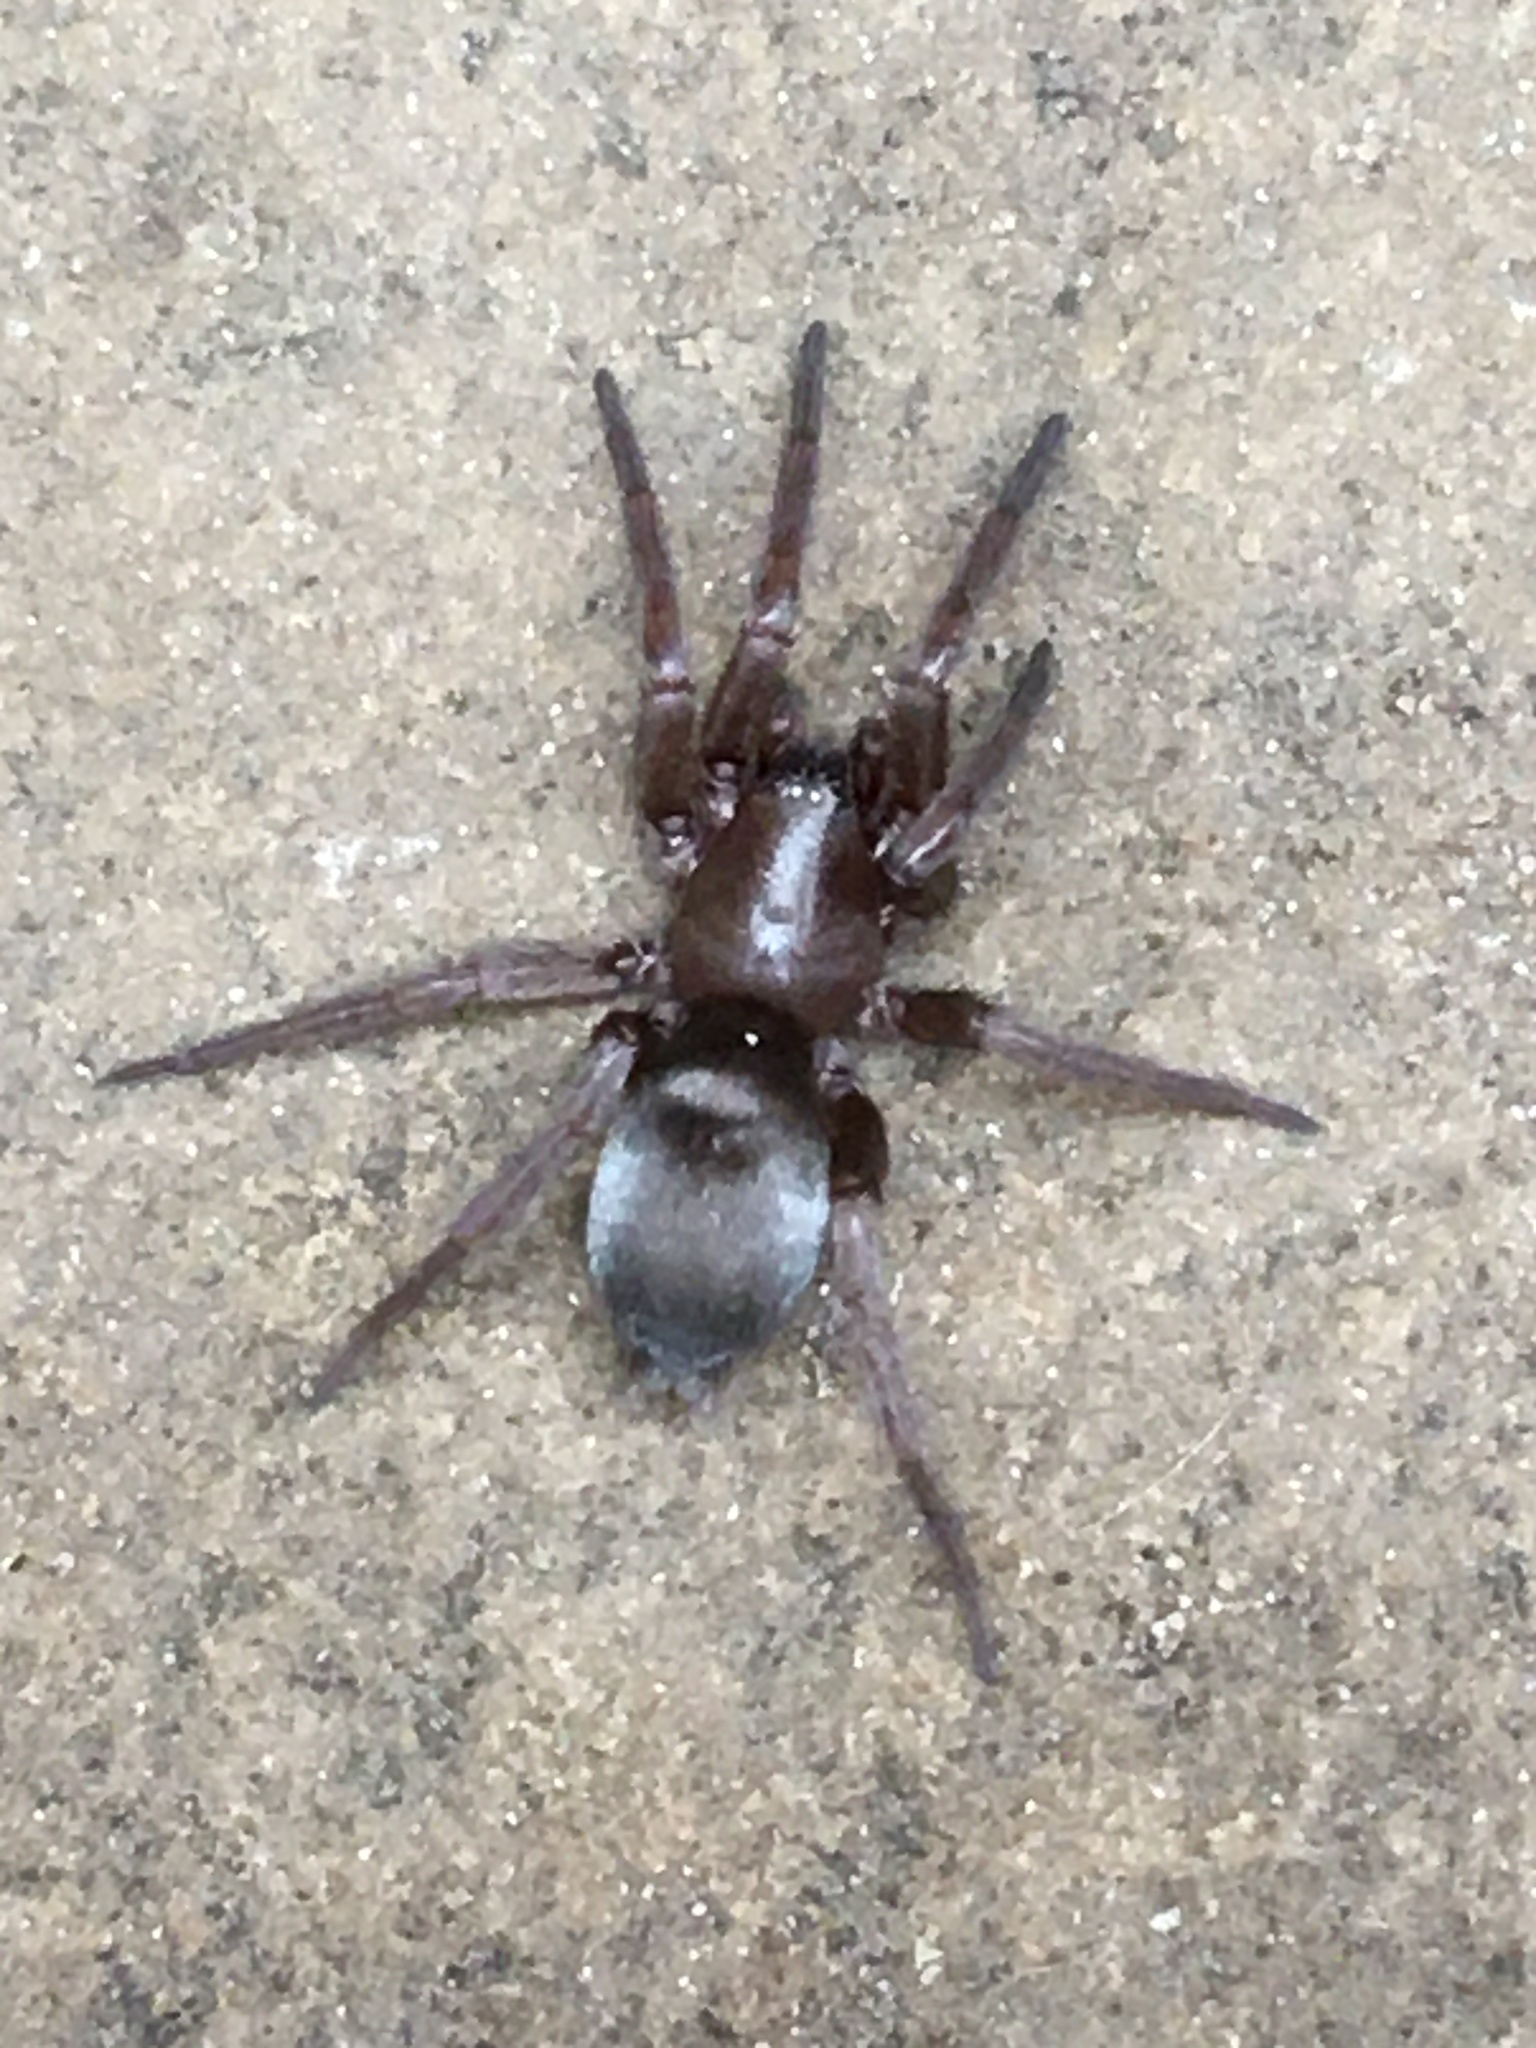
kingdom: Animalia
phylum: Arthropoda
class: Arachnida
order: Araneae
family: Gnaphosidae
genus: Scotophaeus
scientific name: Scotophaeus blackwalli
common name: Mouse spider
